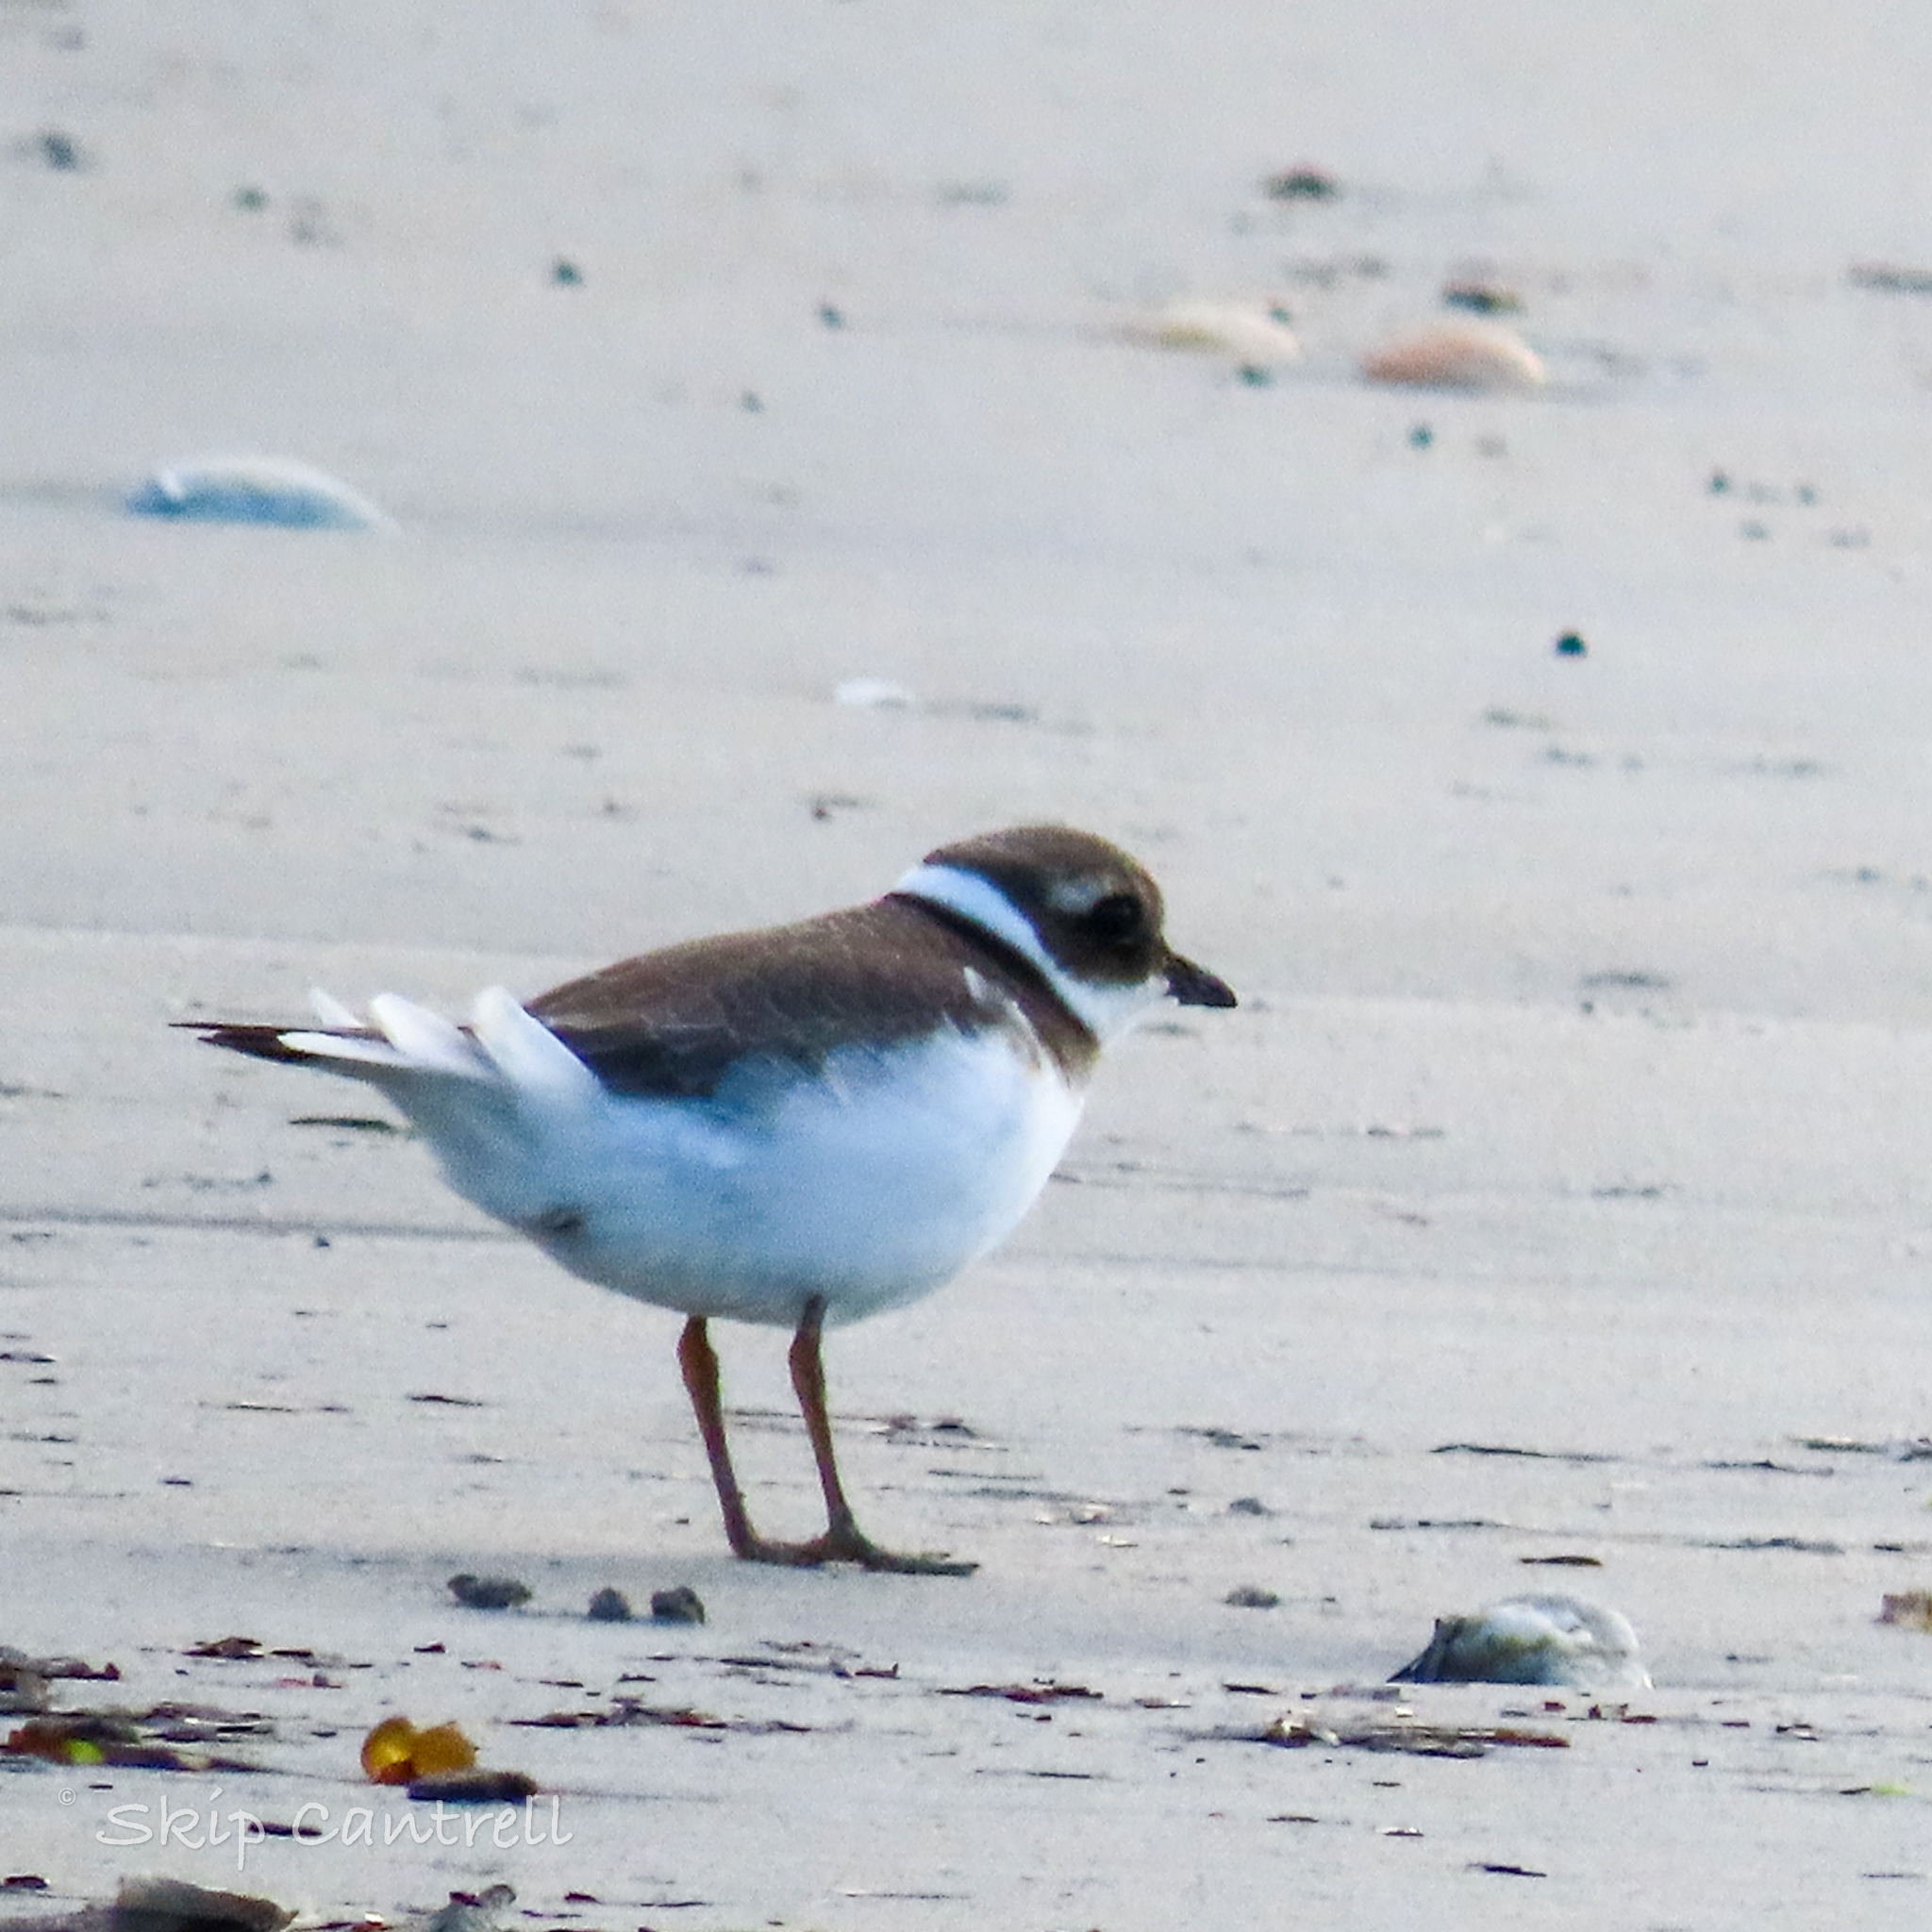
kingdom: Animalia
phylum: Chordata
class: Aves
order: Charadriiformes
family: Charadriidae
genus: Charadrius
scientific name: Charadrius hiaticula
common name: Common ringed plover
